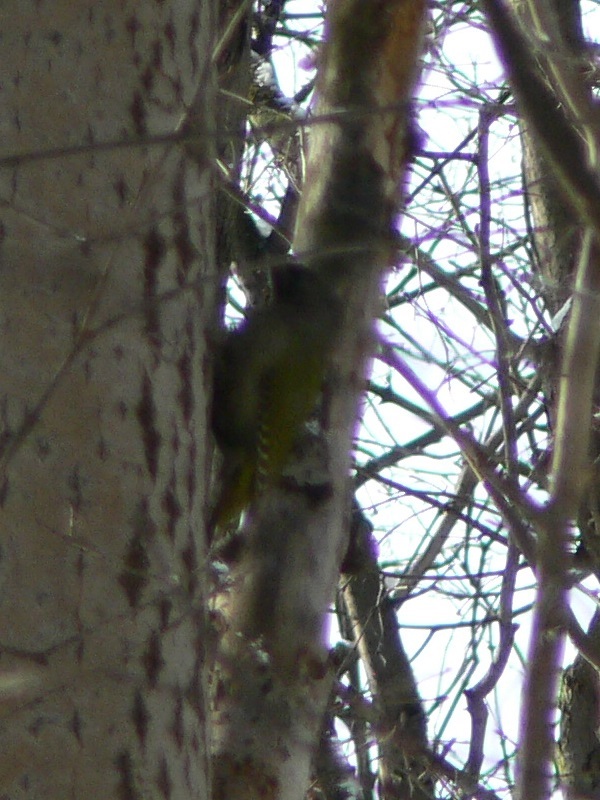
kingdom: Animalia
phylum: Chordata
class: Aves
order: Piciformes
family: Picidae
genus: Picus
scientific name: Picus canus
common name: Grey-headed woodpecker
